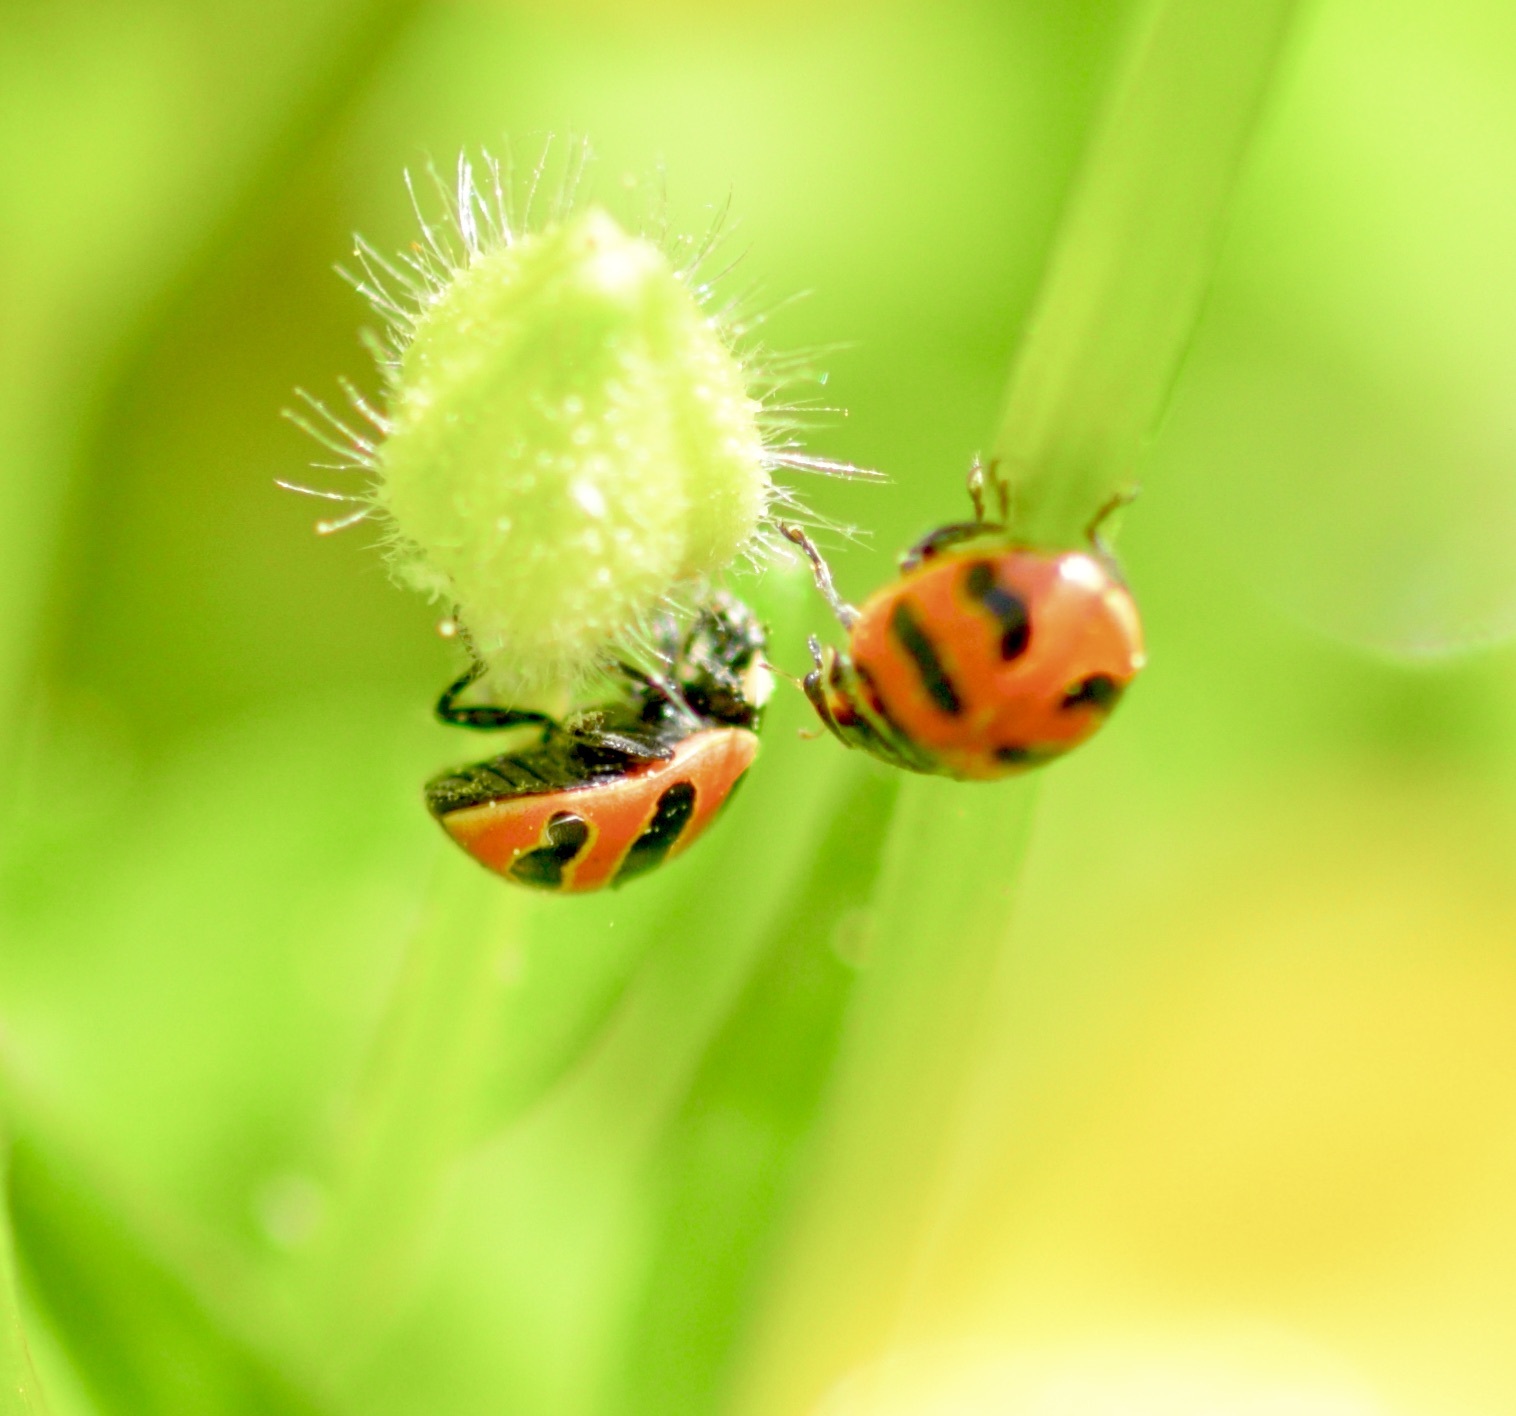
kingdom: Animalia
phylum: Arthropoda
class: Insecta
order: Coleoptera
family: Coccinellidae
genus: Coccinella
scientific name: Coccinella trifasciata
